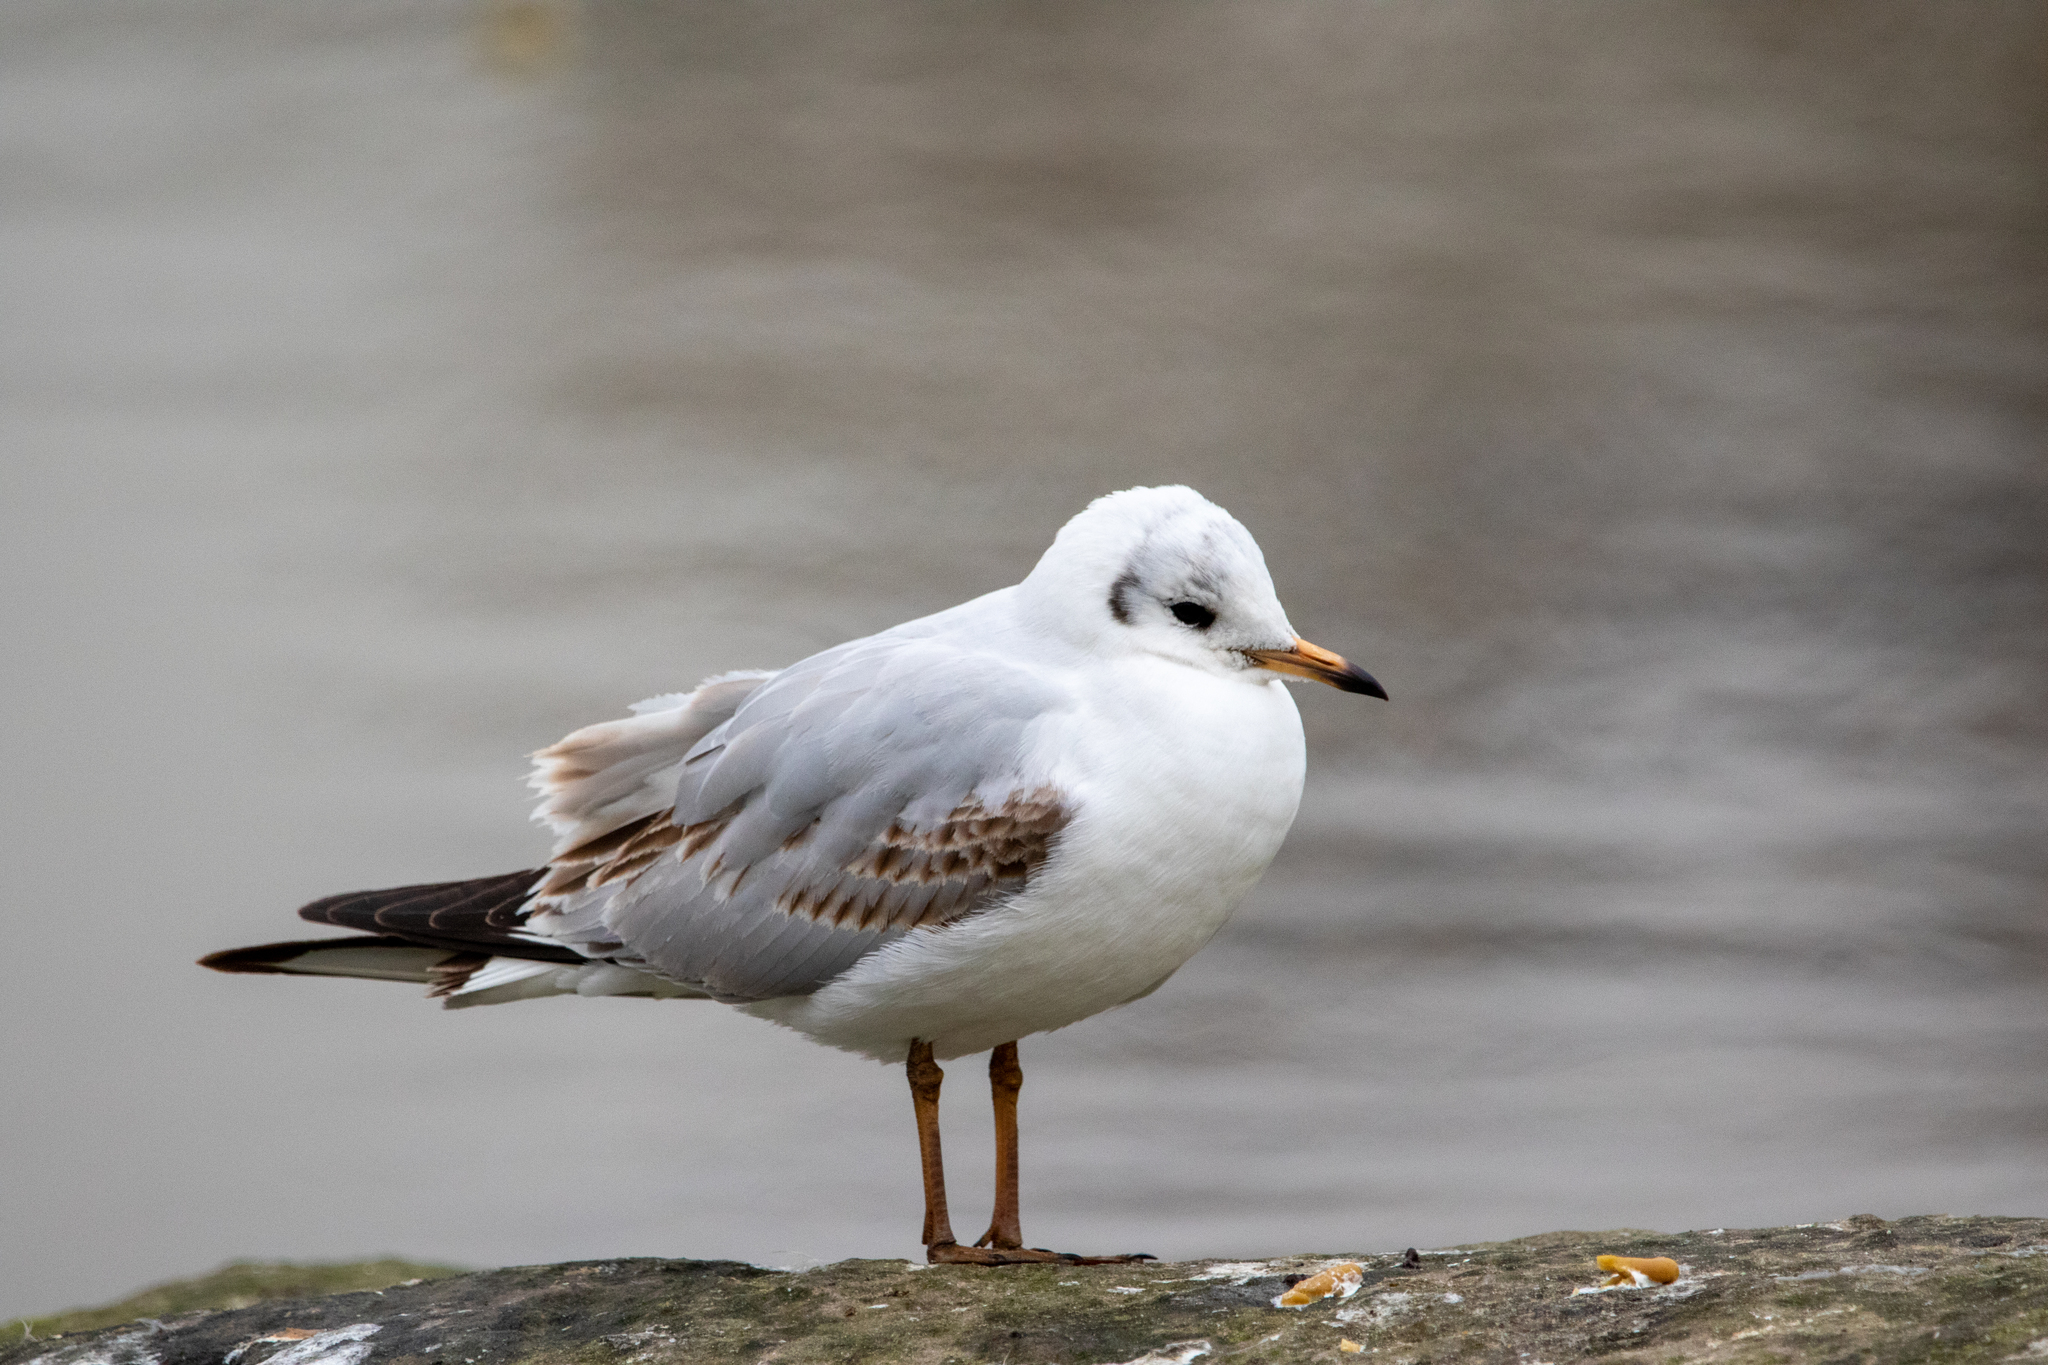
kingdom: Animalia
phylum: Chordata
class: Aves
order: Charadriiformes
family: Laridae
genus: Chroicocephalus
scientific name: Chroicocephalus ridibundus
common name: Black-headed gull
